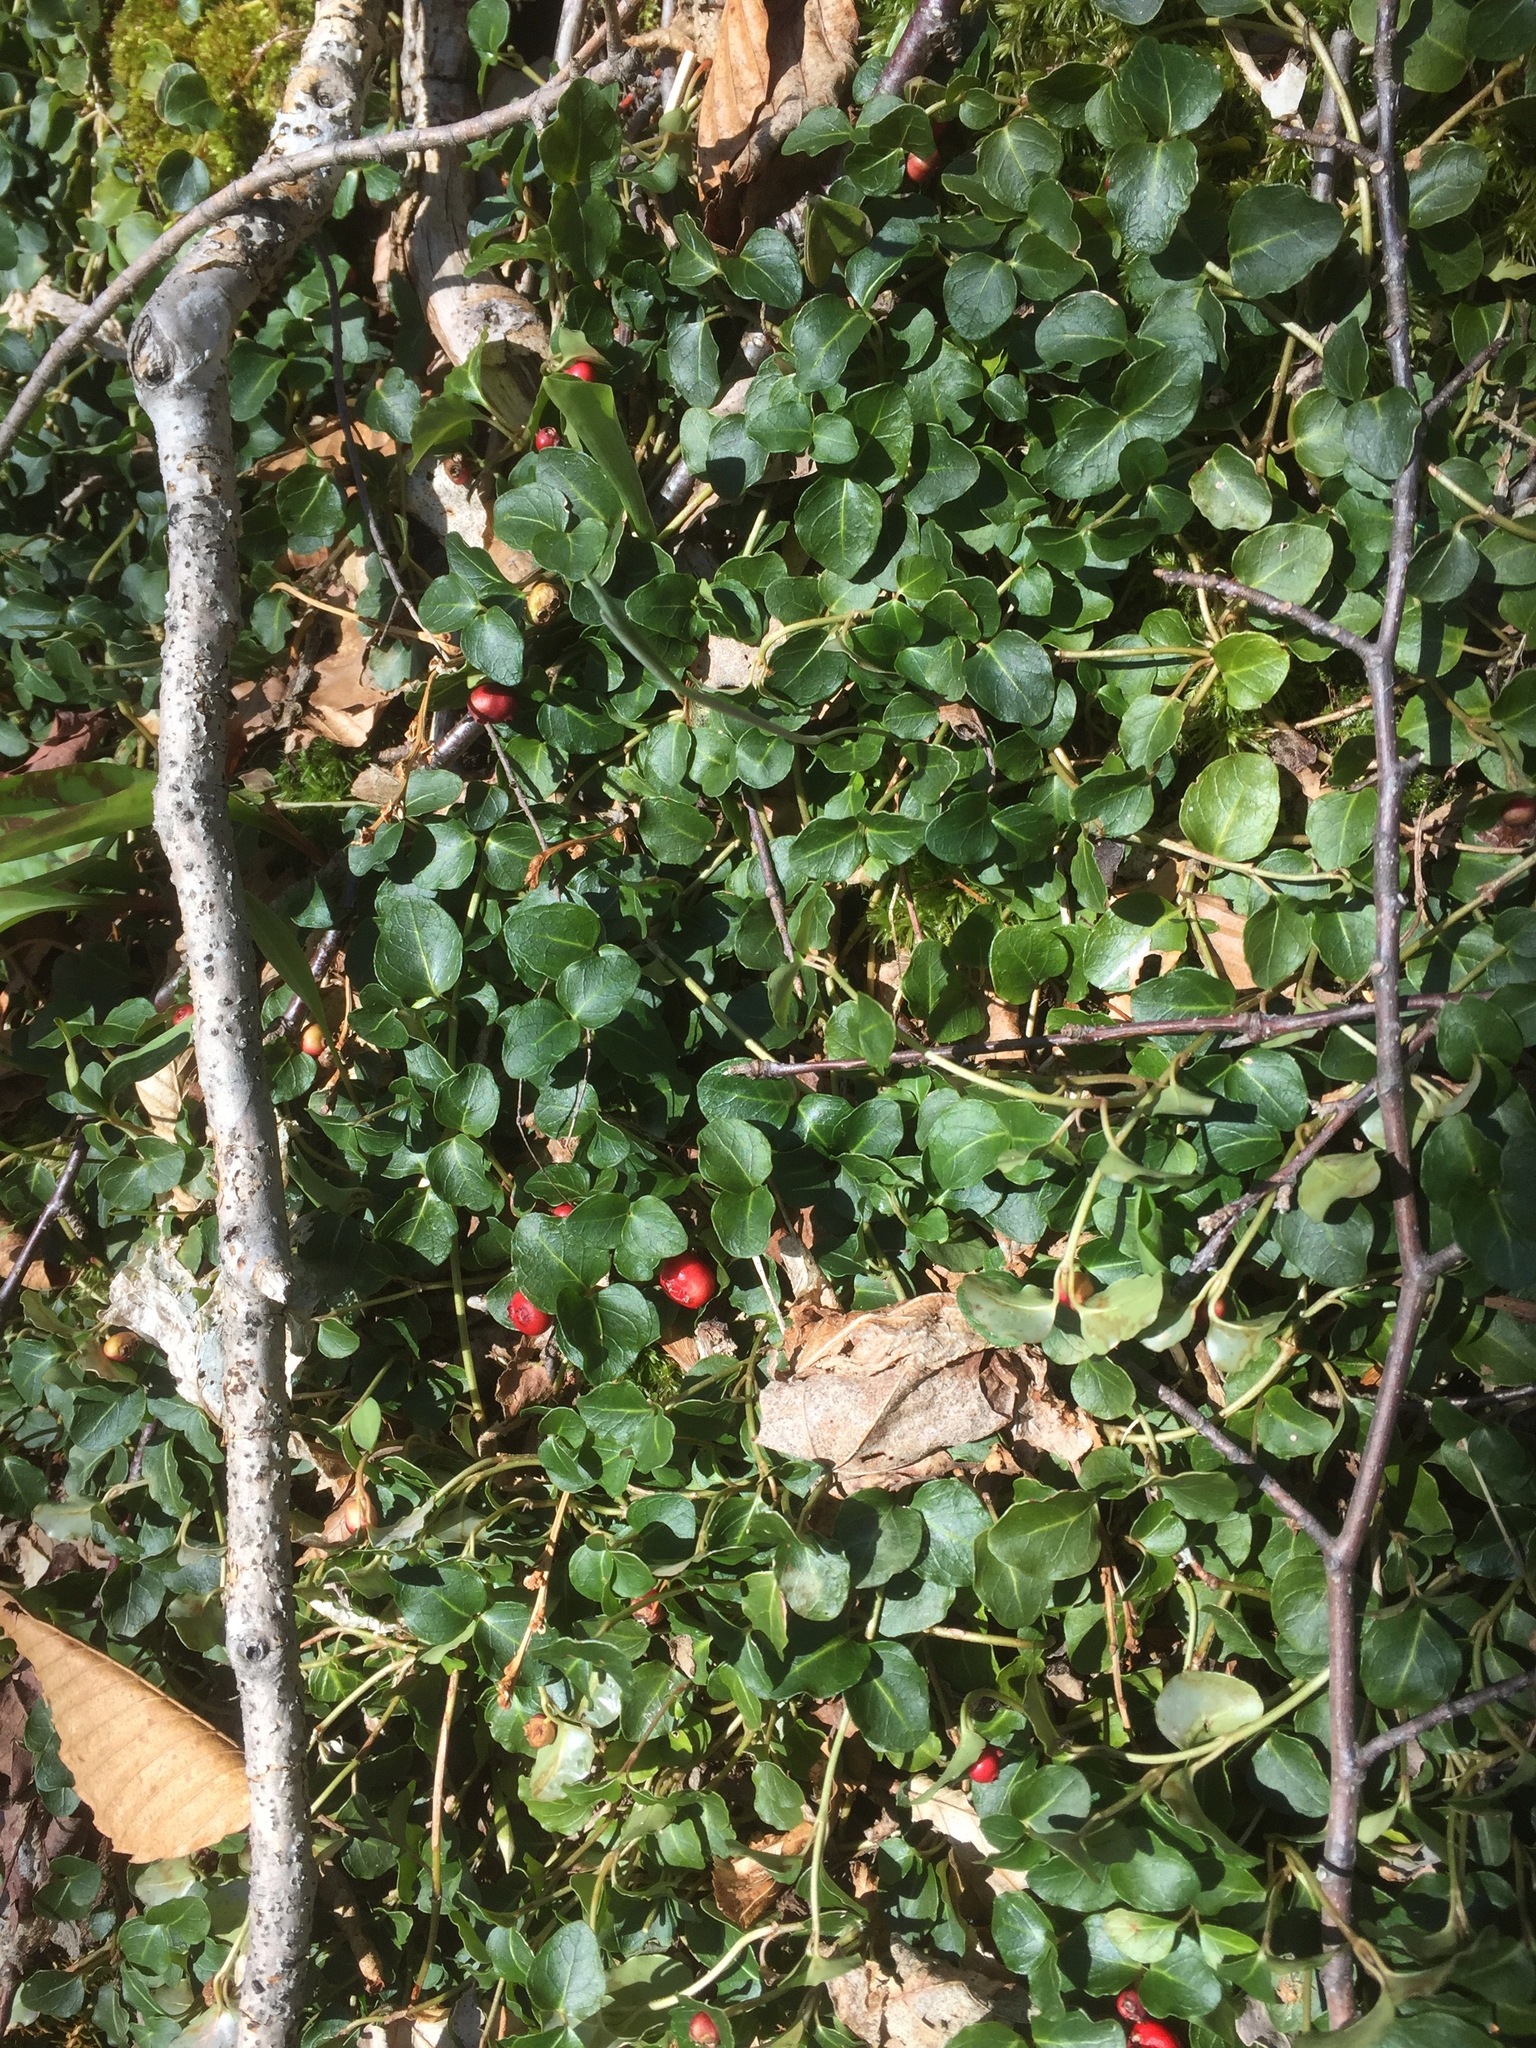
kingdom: Plantae
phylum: Tracheophyta
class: Magnoliopsida
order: Gentianales
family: Rubiaceae
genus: Mitchella
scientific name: Mitchella repens
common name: Partridge-berry
